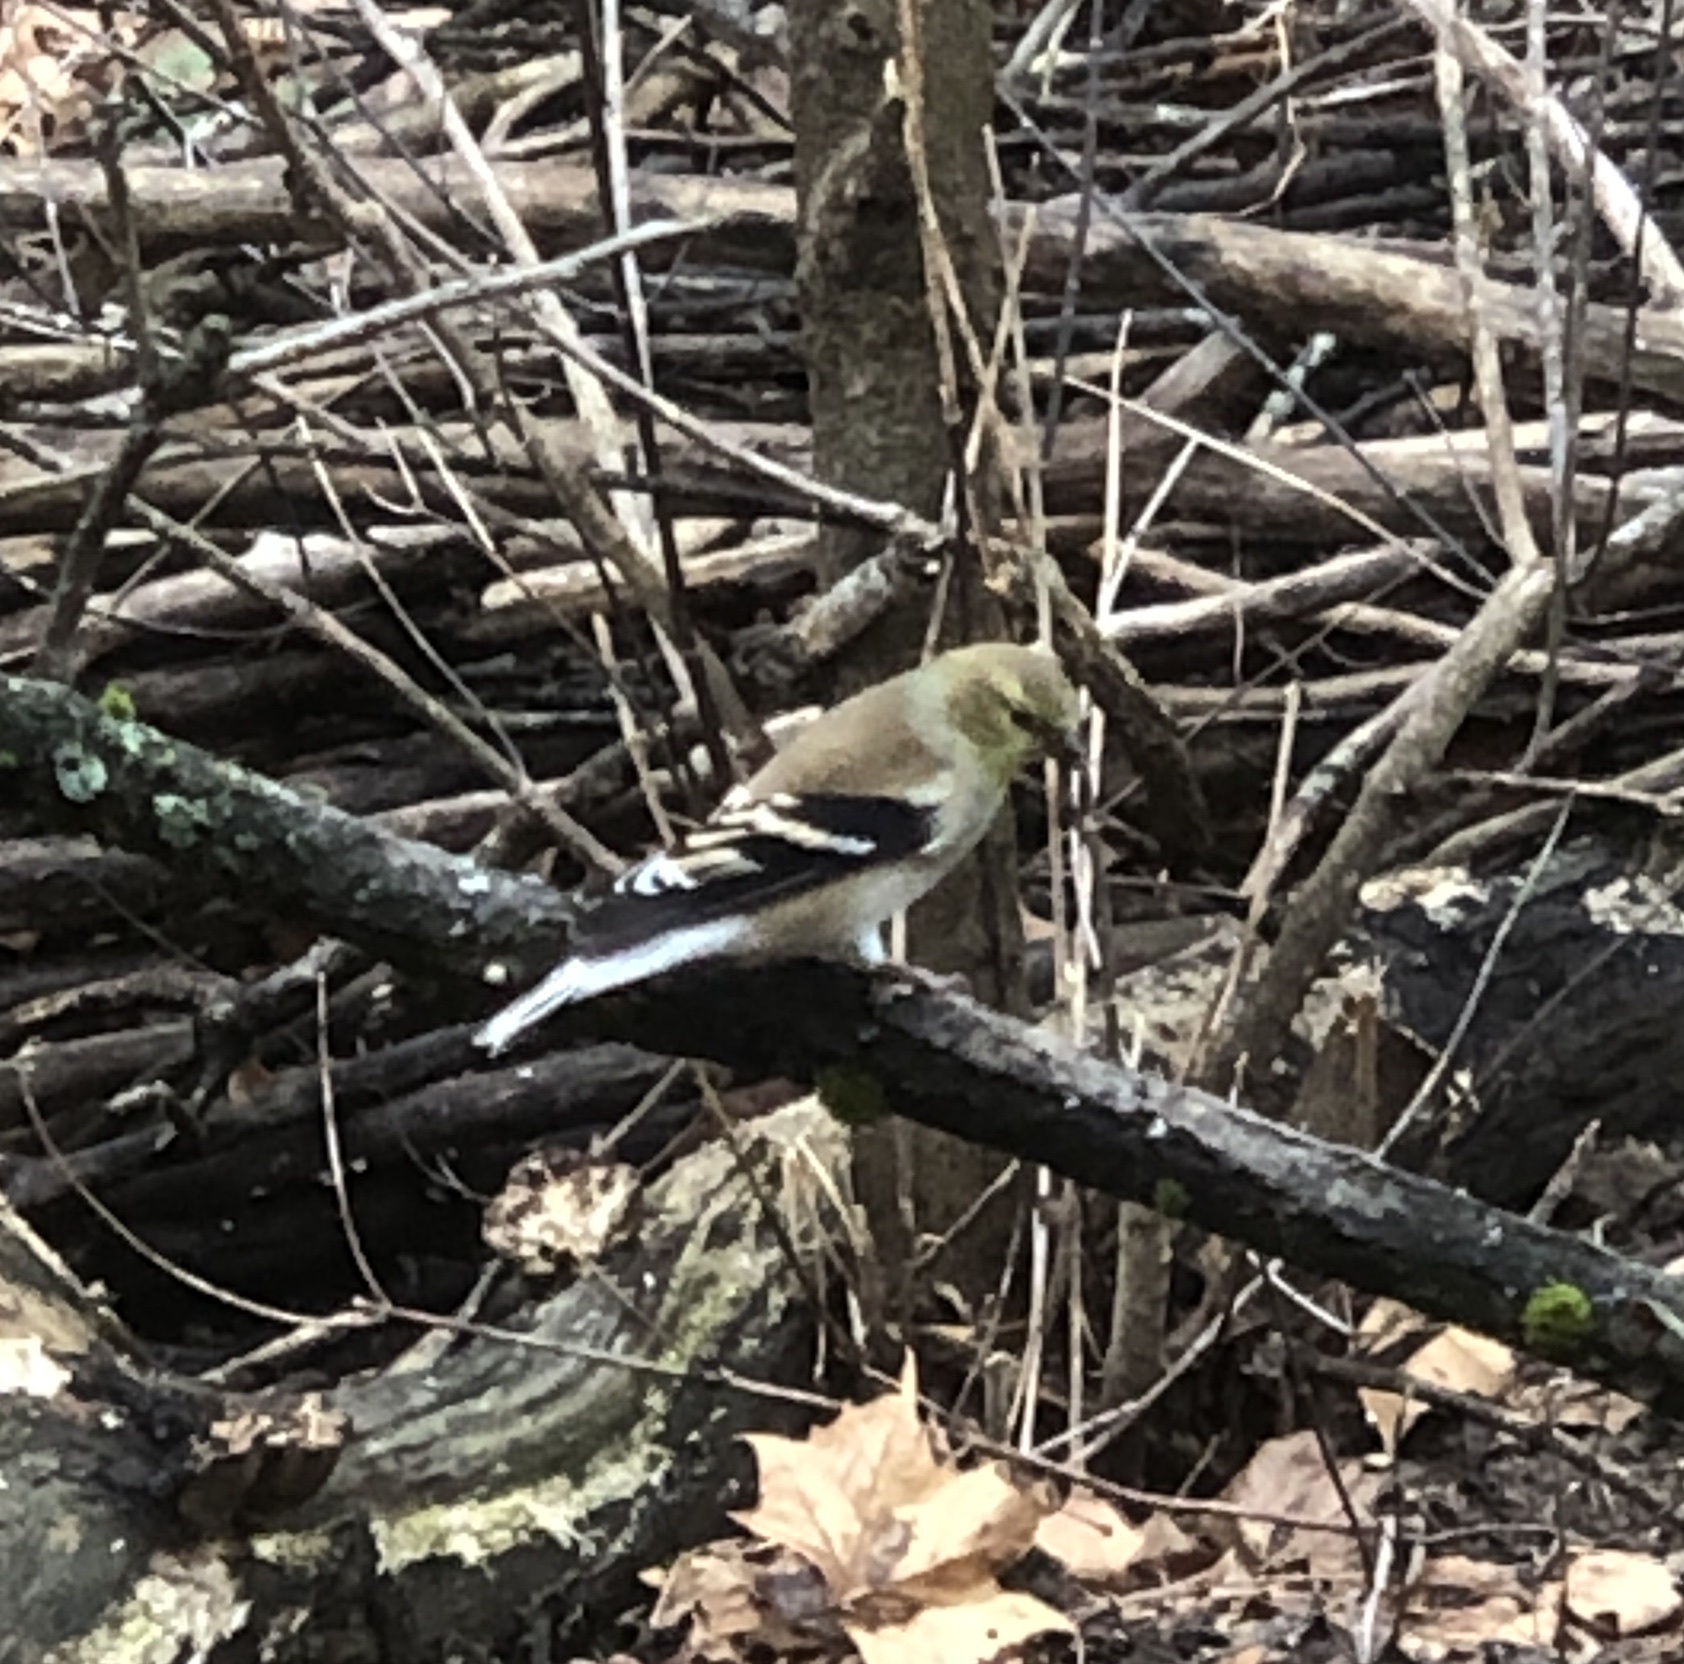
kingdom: Animalia
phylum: Chordata
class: Aves
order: Passeriformes
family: Fringillidae
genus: Spinus
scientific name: Spinus tristis
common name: American goldfinch
